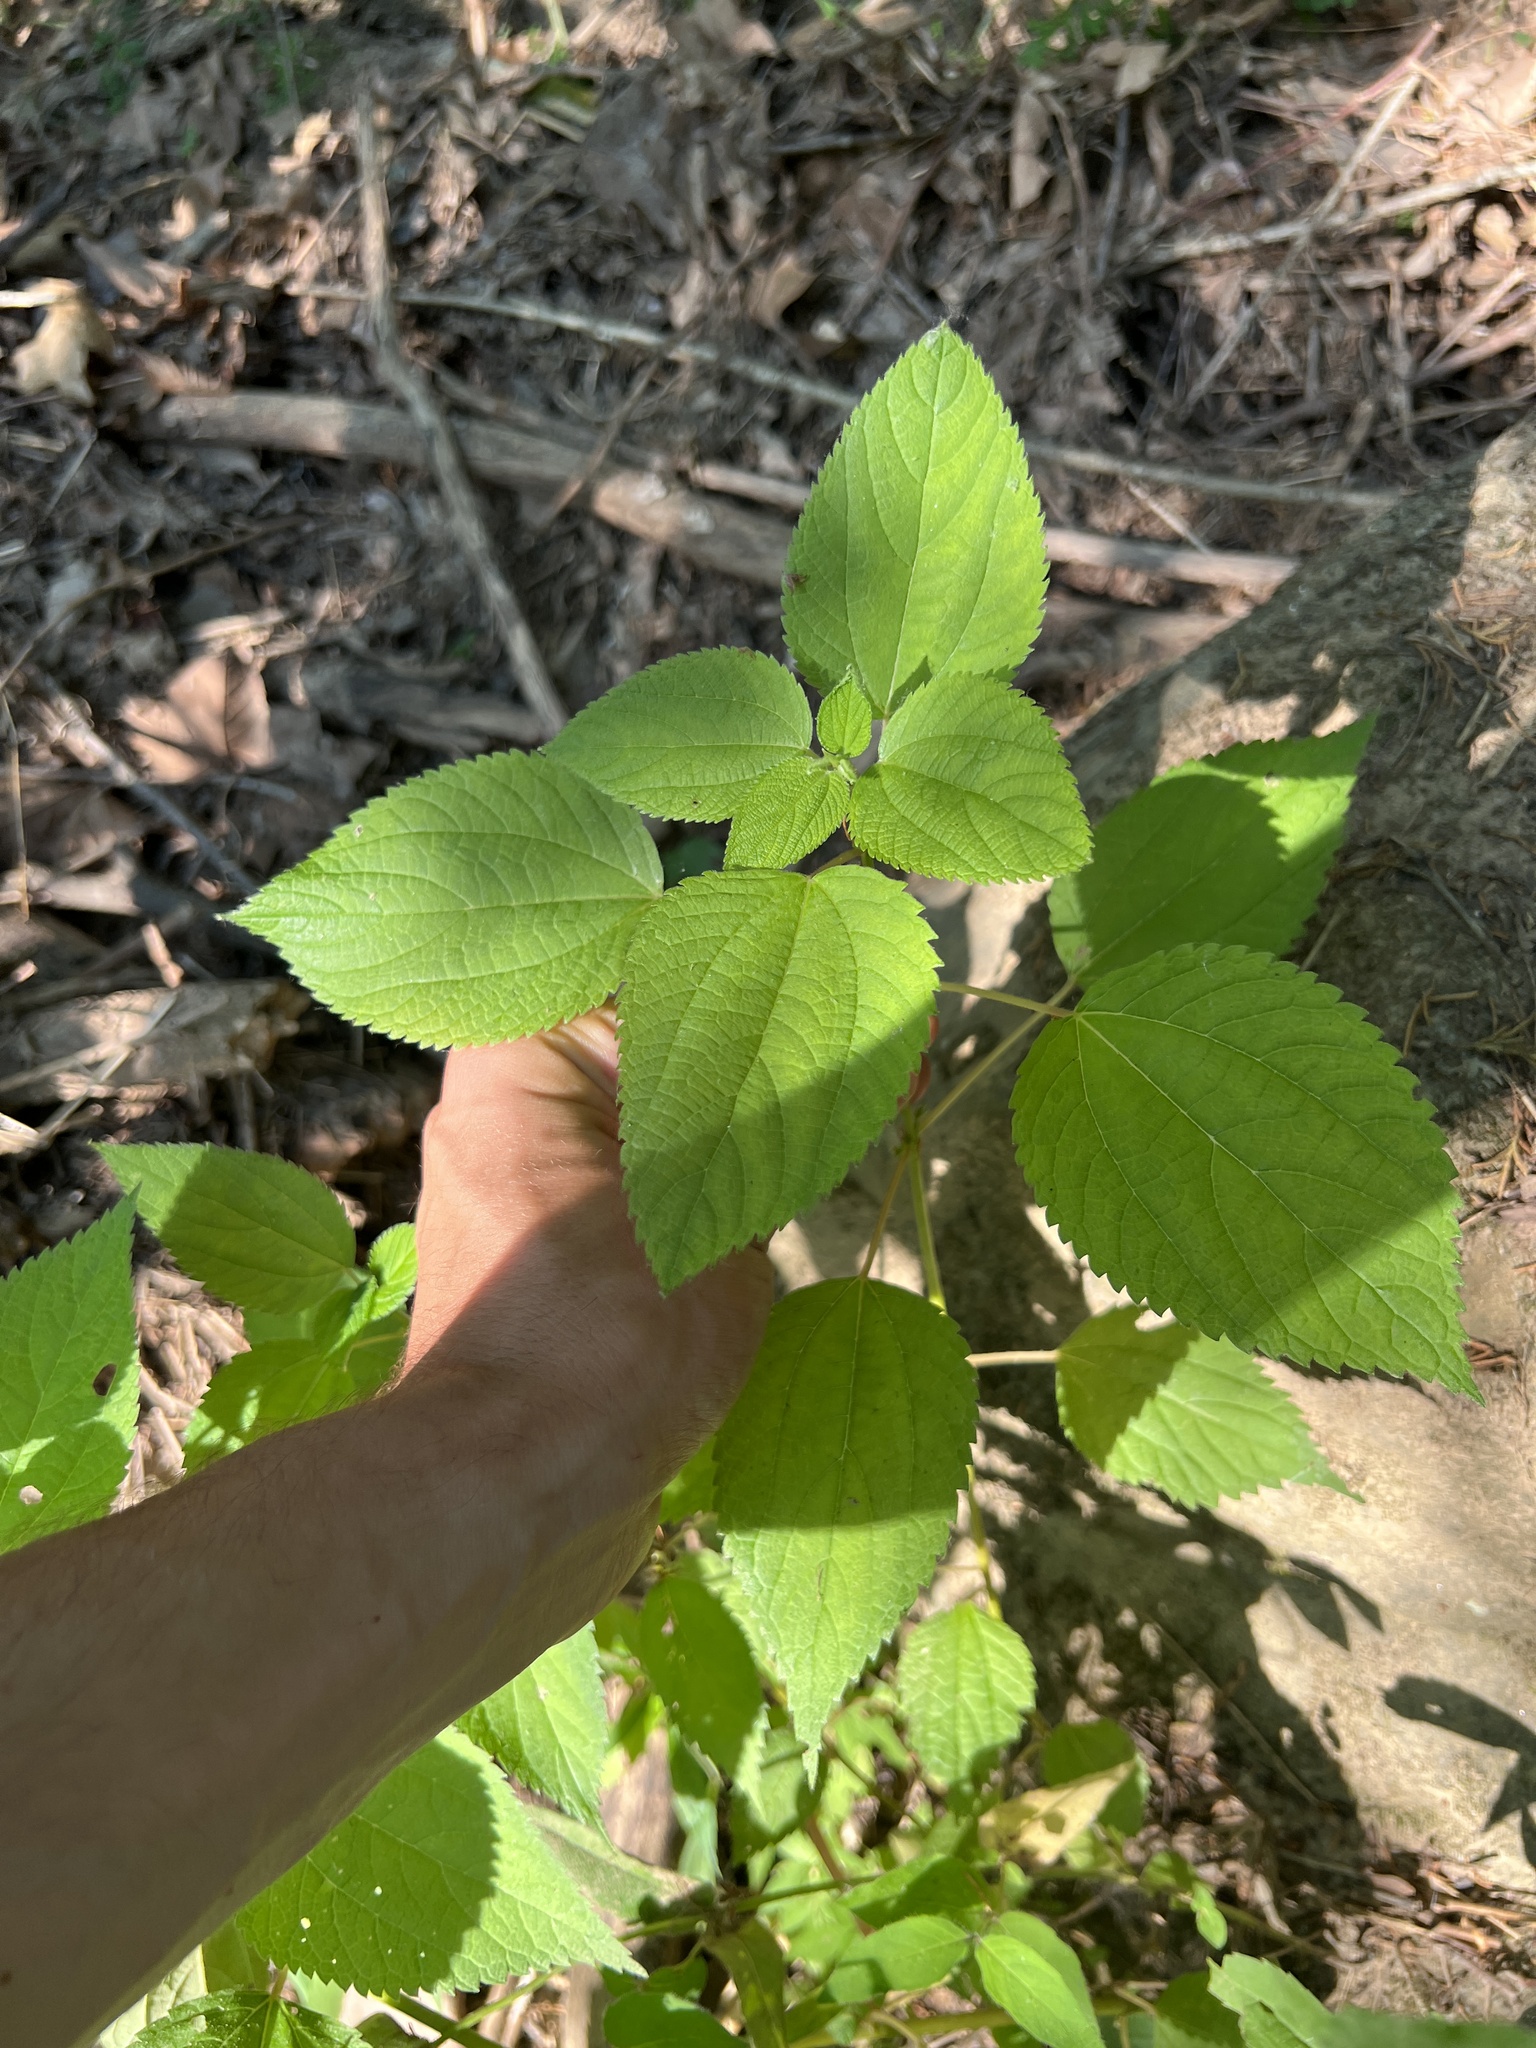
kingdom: Plantae
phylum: Tracheophyta
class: Magnoliopsida
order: Cornales
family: Hydrangeaceae
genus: Hydrangea
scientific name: Hydrangea arborescens
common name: Sevenbark
